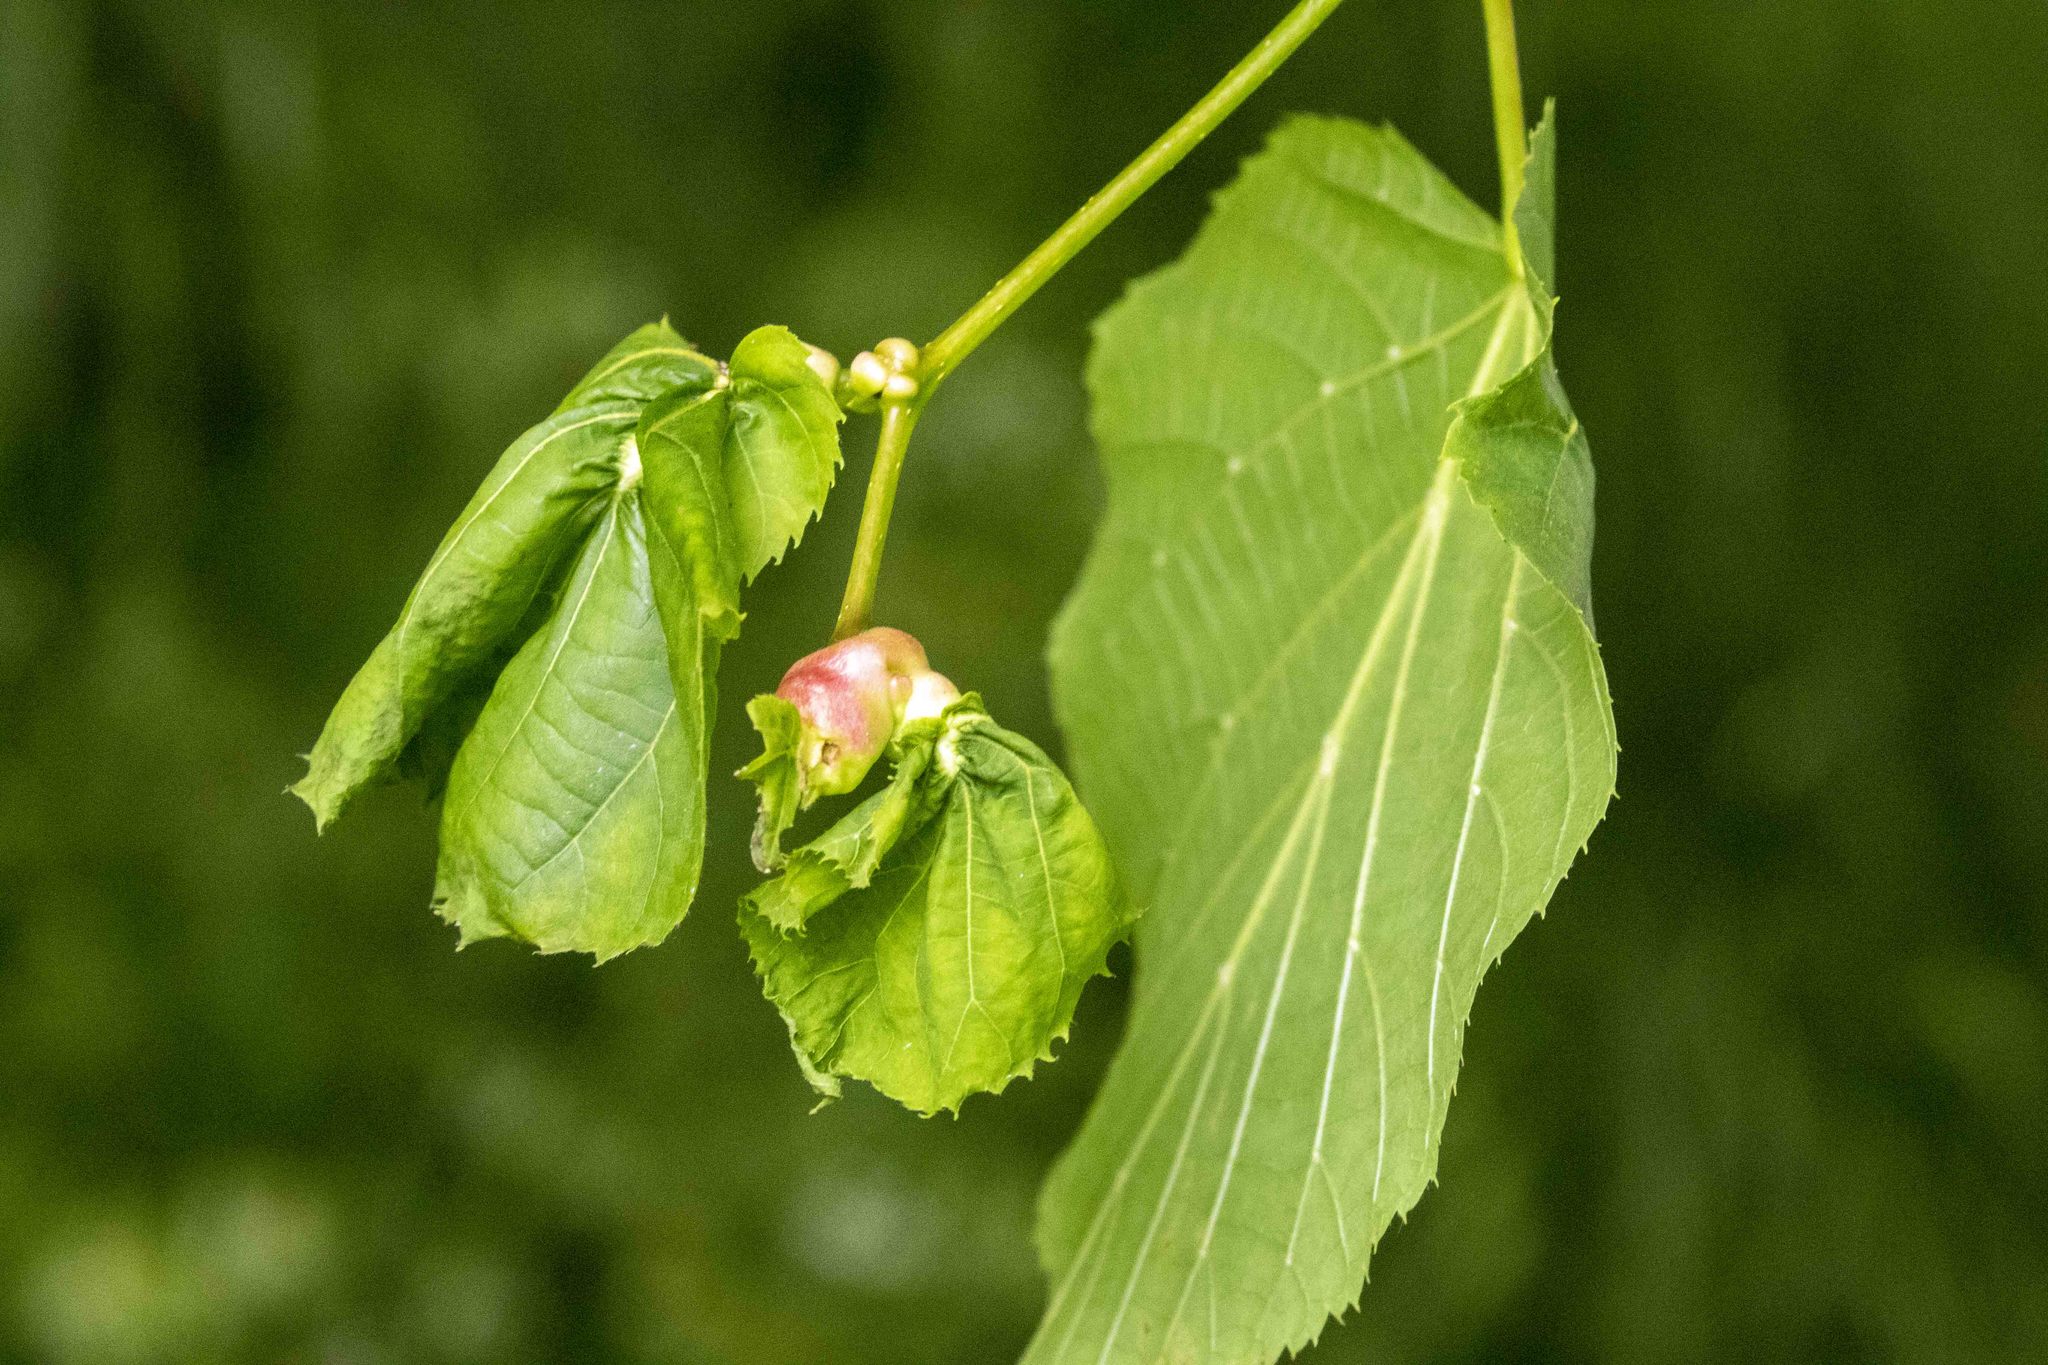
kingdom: Animalia
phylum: Arthropoda
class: Insecta
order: Diptera
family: Cecidomyiidae
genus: Contarinia
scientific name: Contarinia tiliarum
